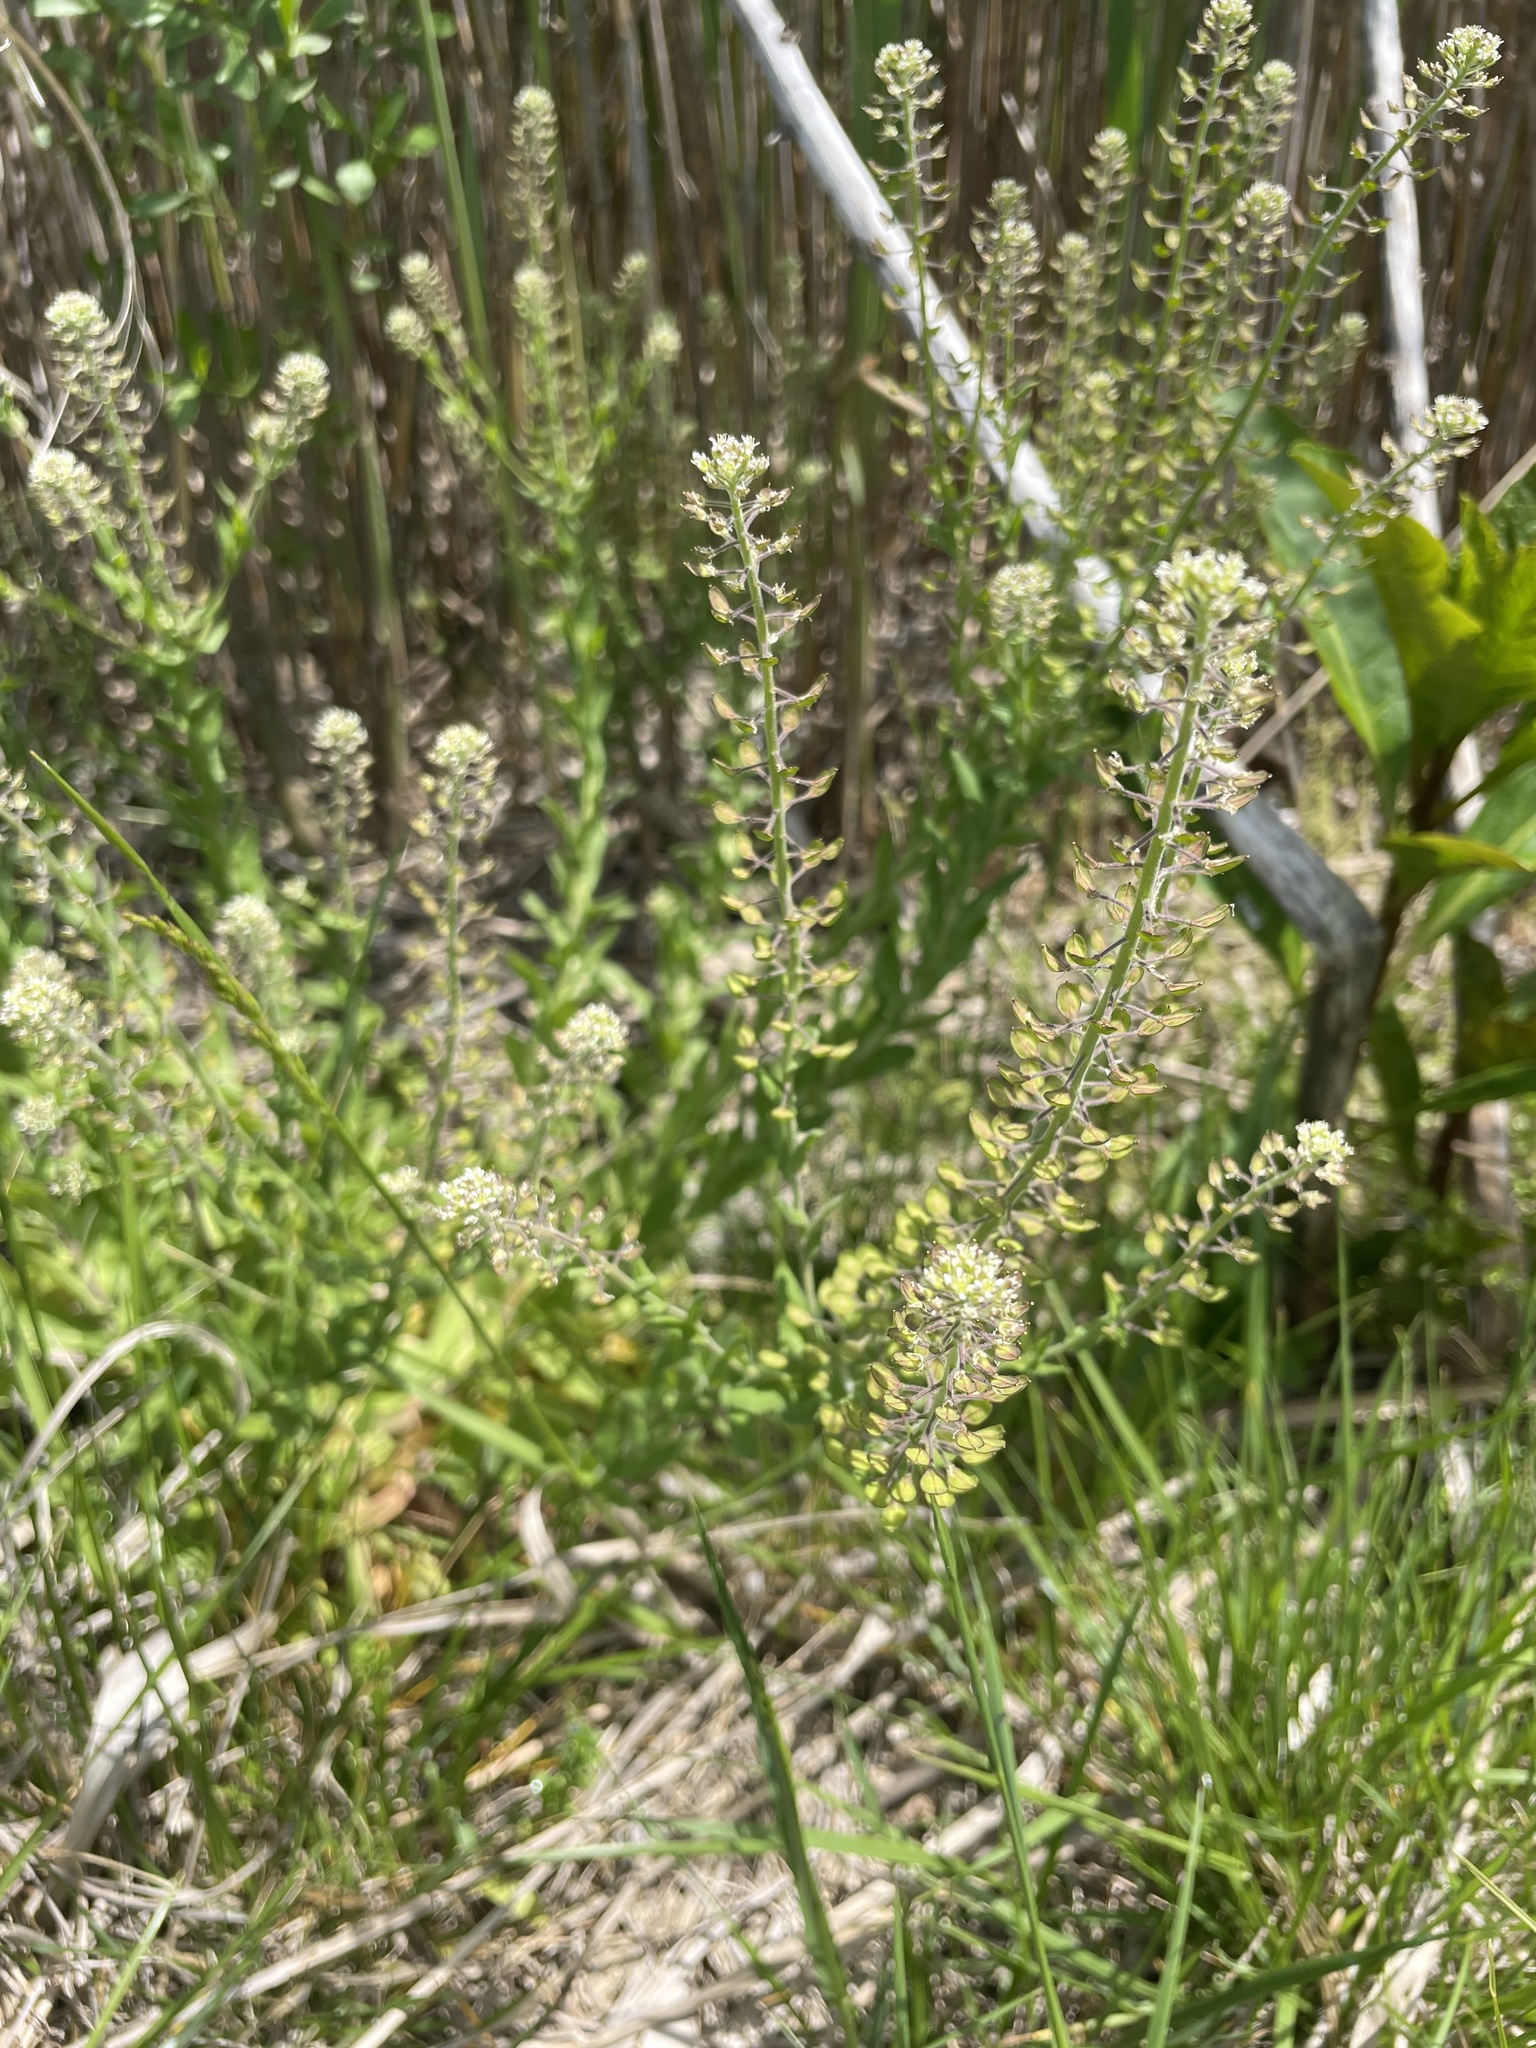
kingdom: Plantae
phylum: Tracheophyta
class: Magnoliopsida
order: Brassicales
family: Brassicaceae
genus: Lepidium
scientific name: Lepidium campestre
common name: Field pepperwort
